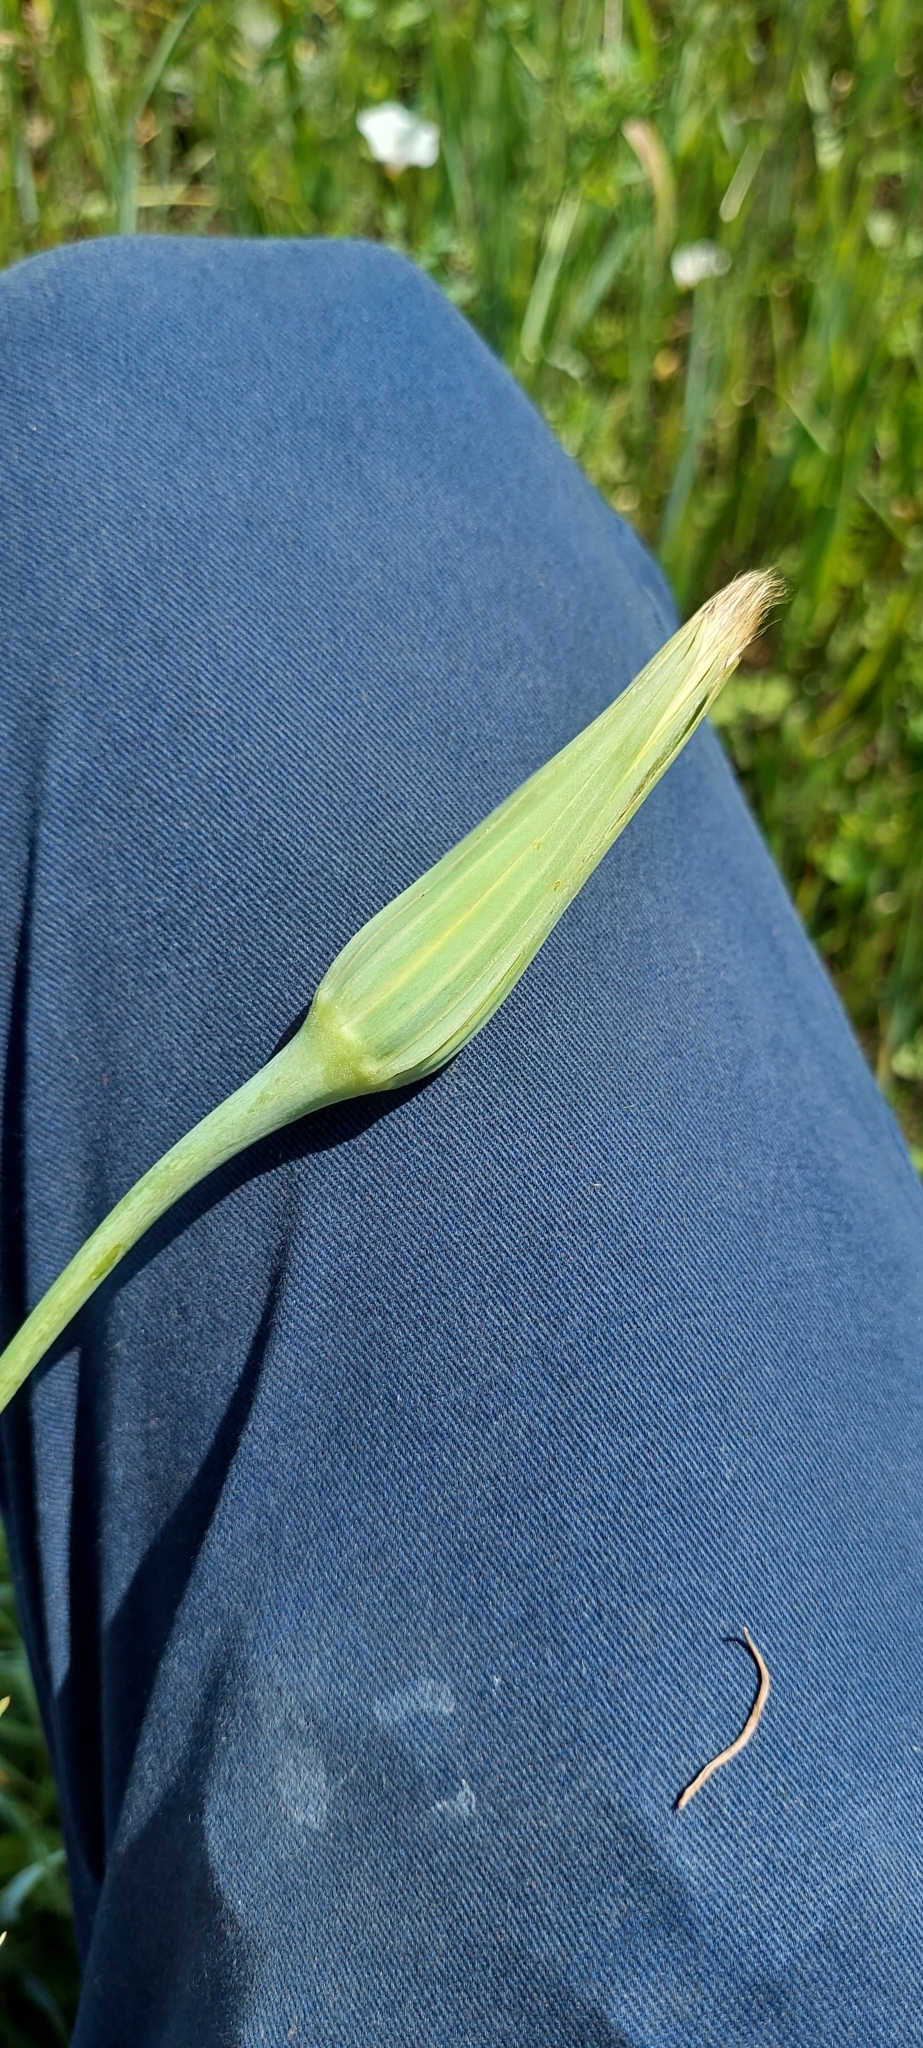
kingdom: Plantae
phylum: Tracheophyta
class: Magnoliopsida
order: Asterales
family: Asteraceae
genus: Tragopogon
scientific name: Tragopogon dubius
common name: Yellow salsify
